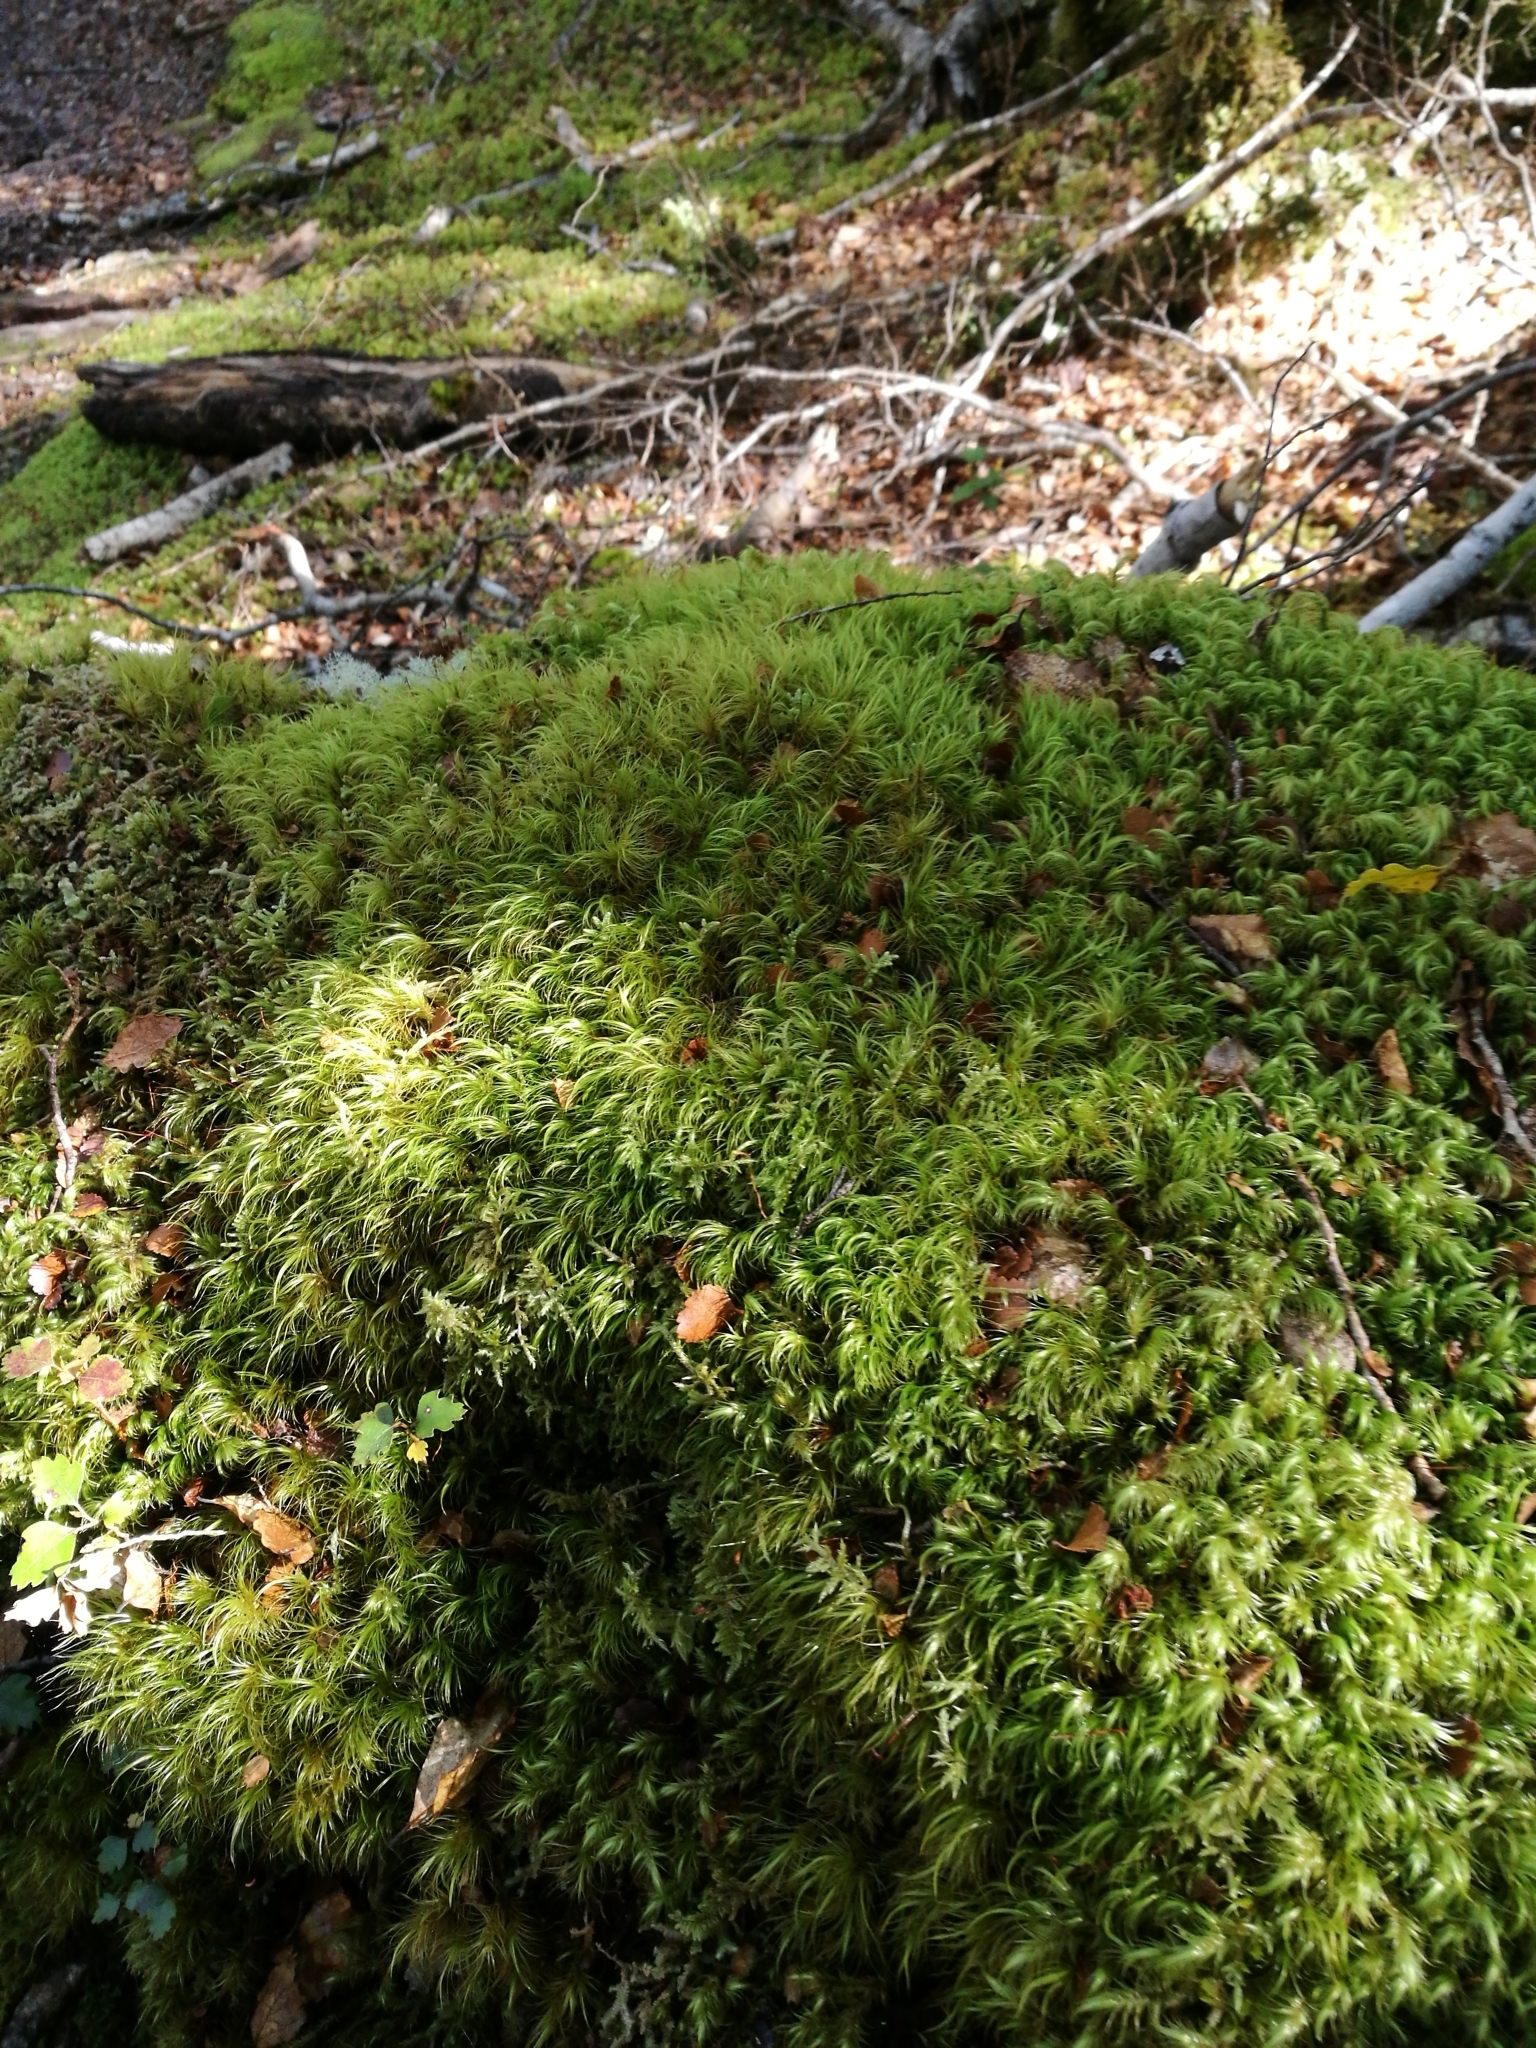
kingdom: Plantae
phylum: Bryophyta
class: Bryopsida
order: Dicranales
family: Dicranaceae
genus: Dicranoloma
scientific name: Dicranoloma
